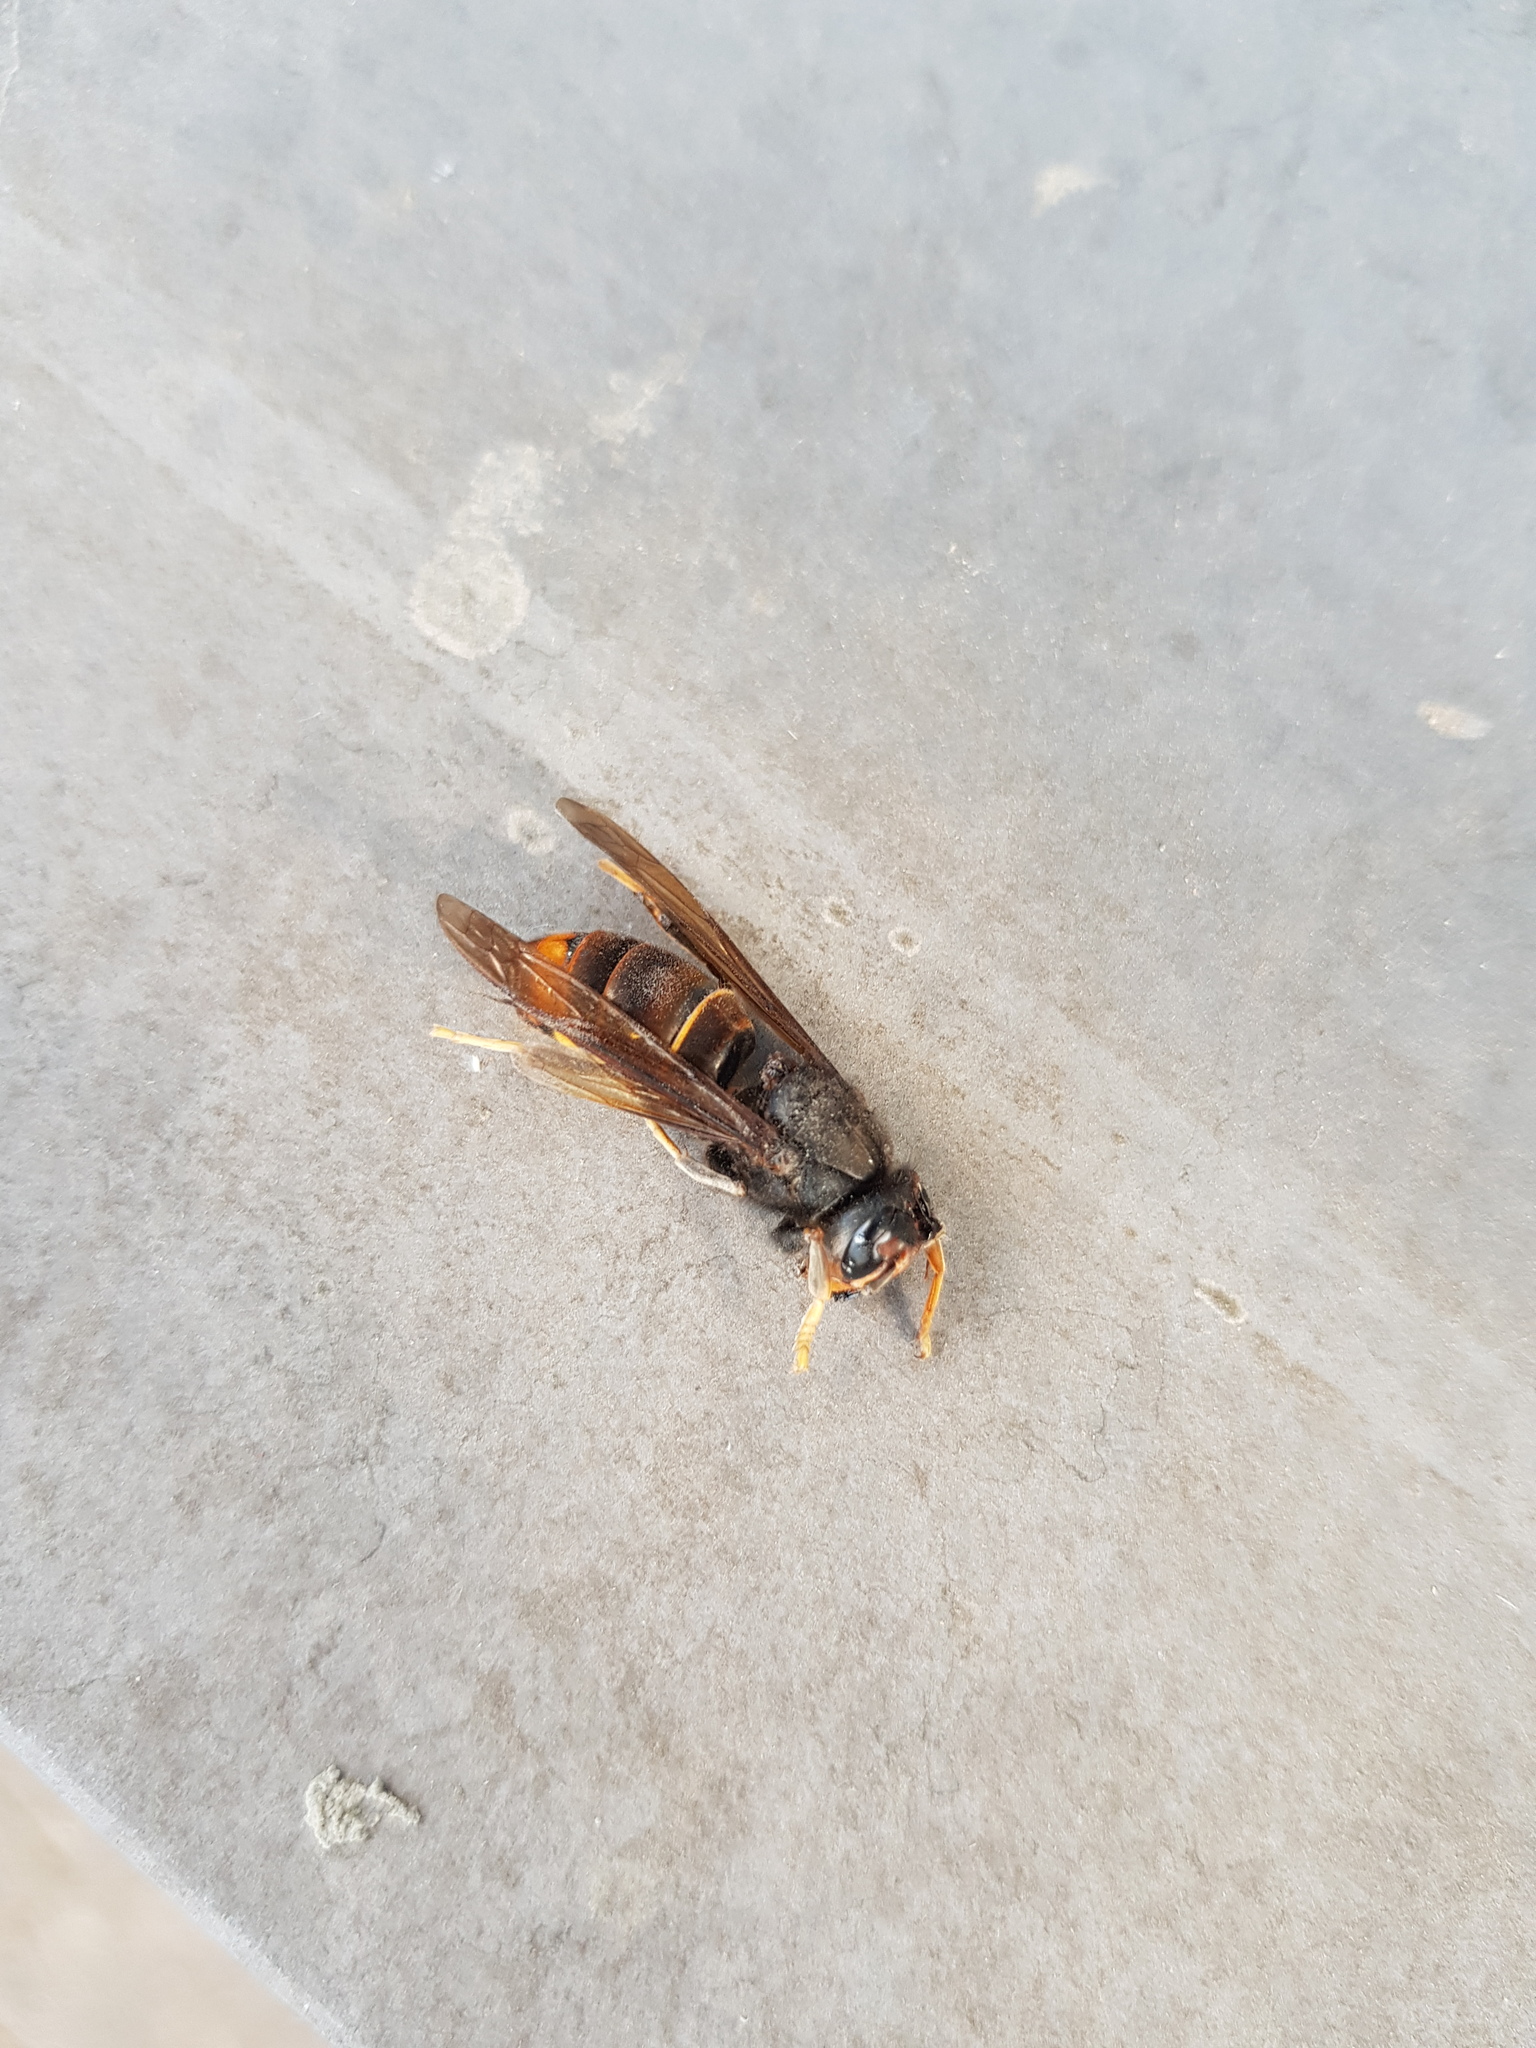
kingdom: Animalia
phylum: Arthropoda
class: Insecta
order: Hymenoptera
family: Vespidae
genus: Vespa
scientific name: Vespa velutina
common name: Asian hornet
